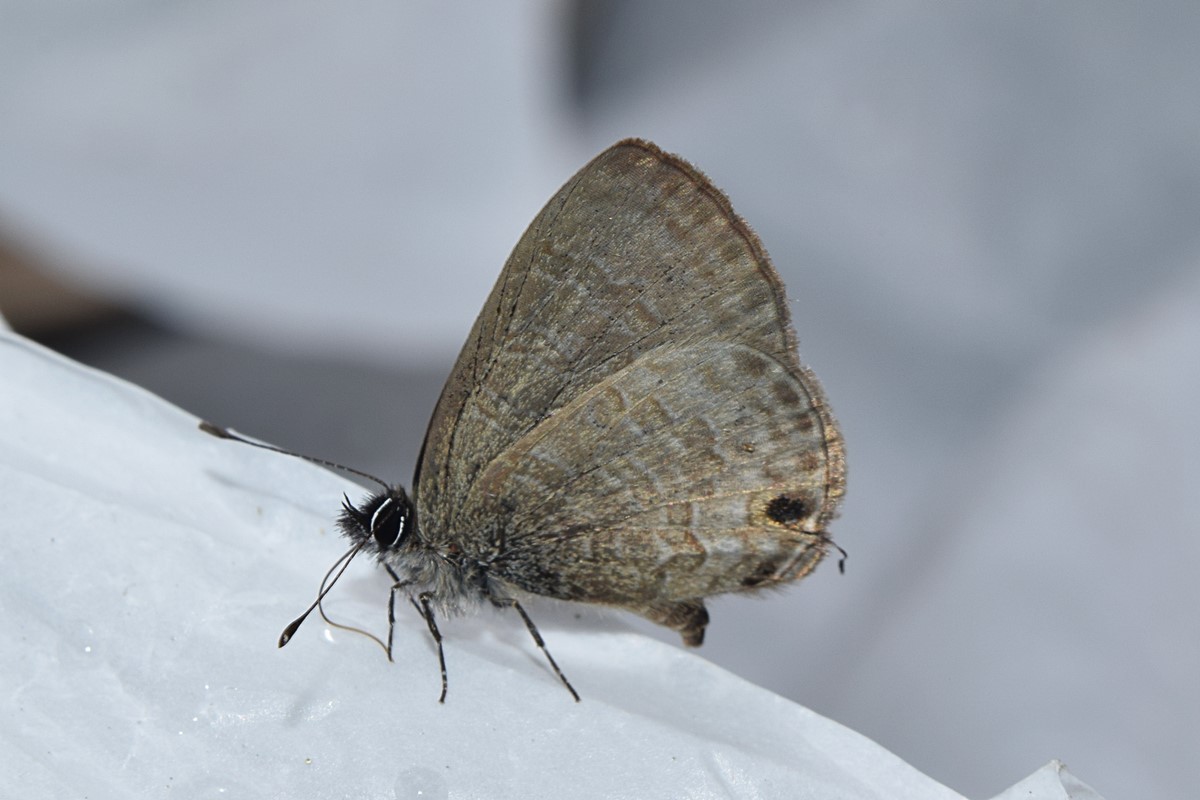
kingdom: Animalia
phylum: Arthropoda
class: Insecta
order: Lepidoptera
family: Lycaenidae
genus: Nacaduba
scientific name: Nacaduba kurava
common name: Transparent 6-line blue
